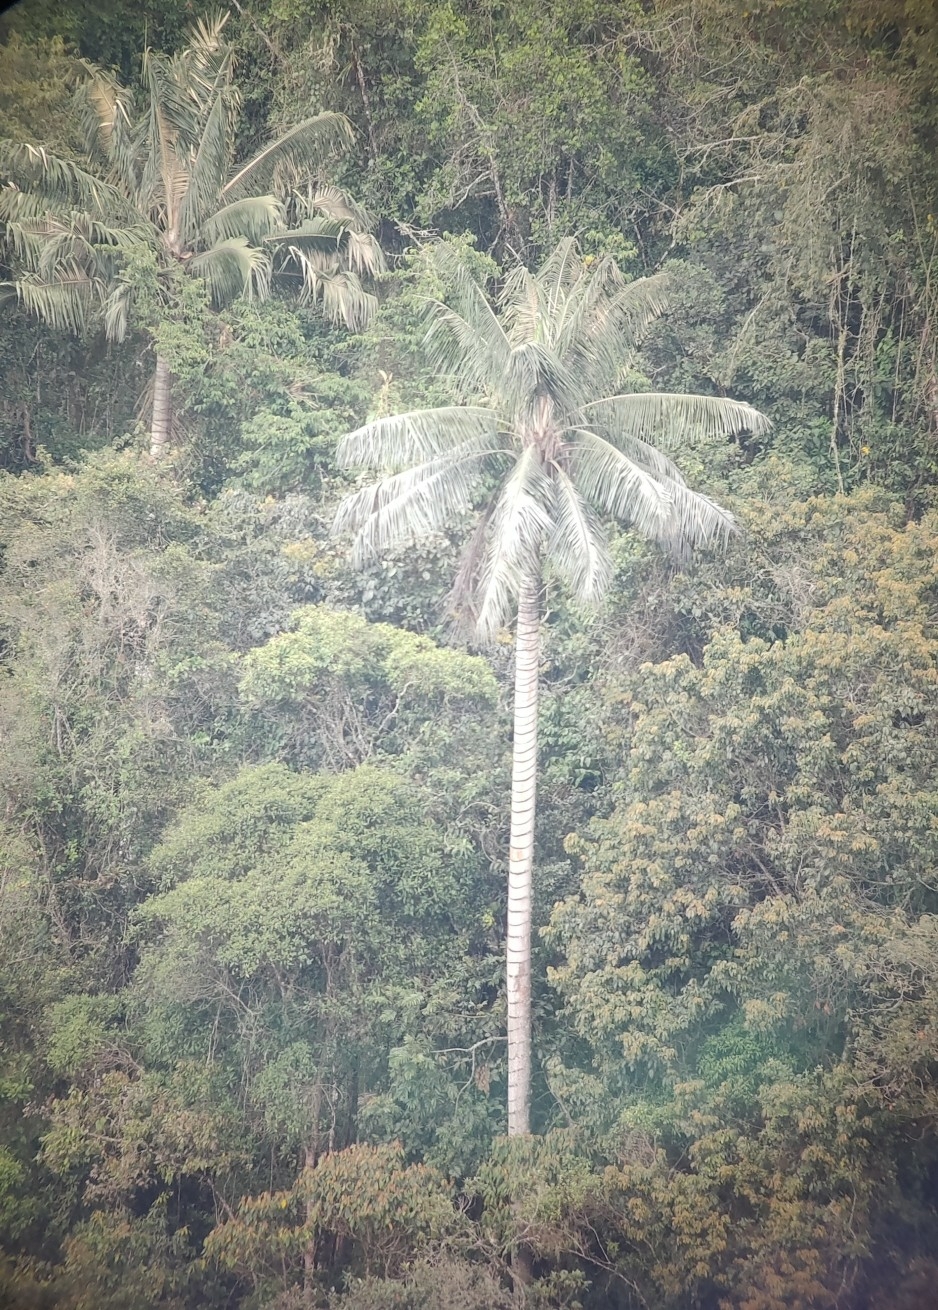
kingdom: Plantae
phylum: Tracheophyta
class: Liliopsida
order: Arecales
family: Arecaceae
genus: Ceroxylon
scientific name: Ceroxylon quindiuense
